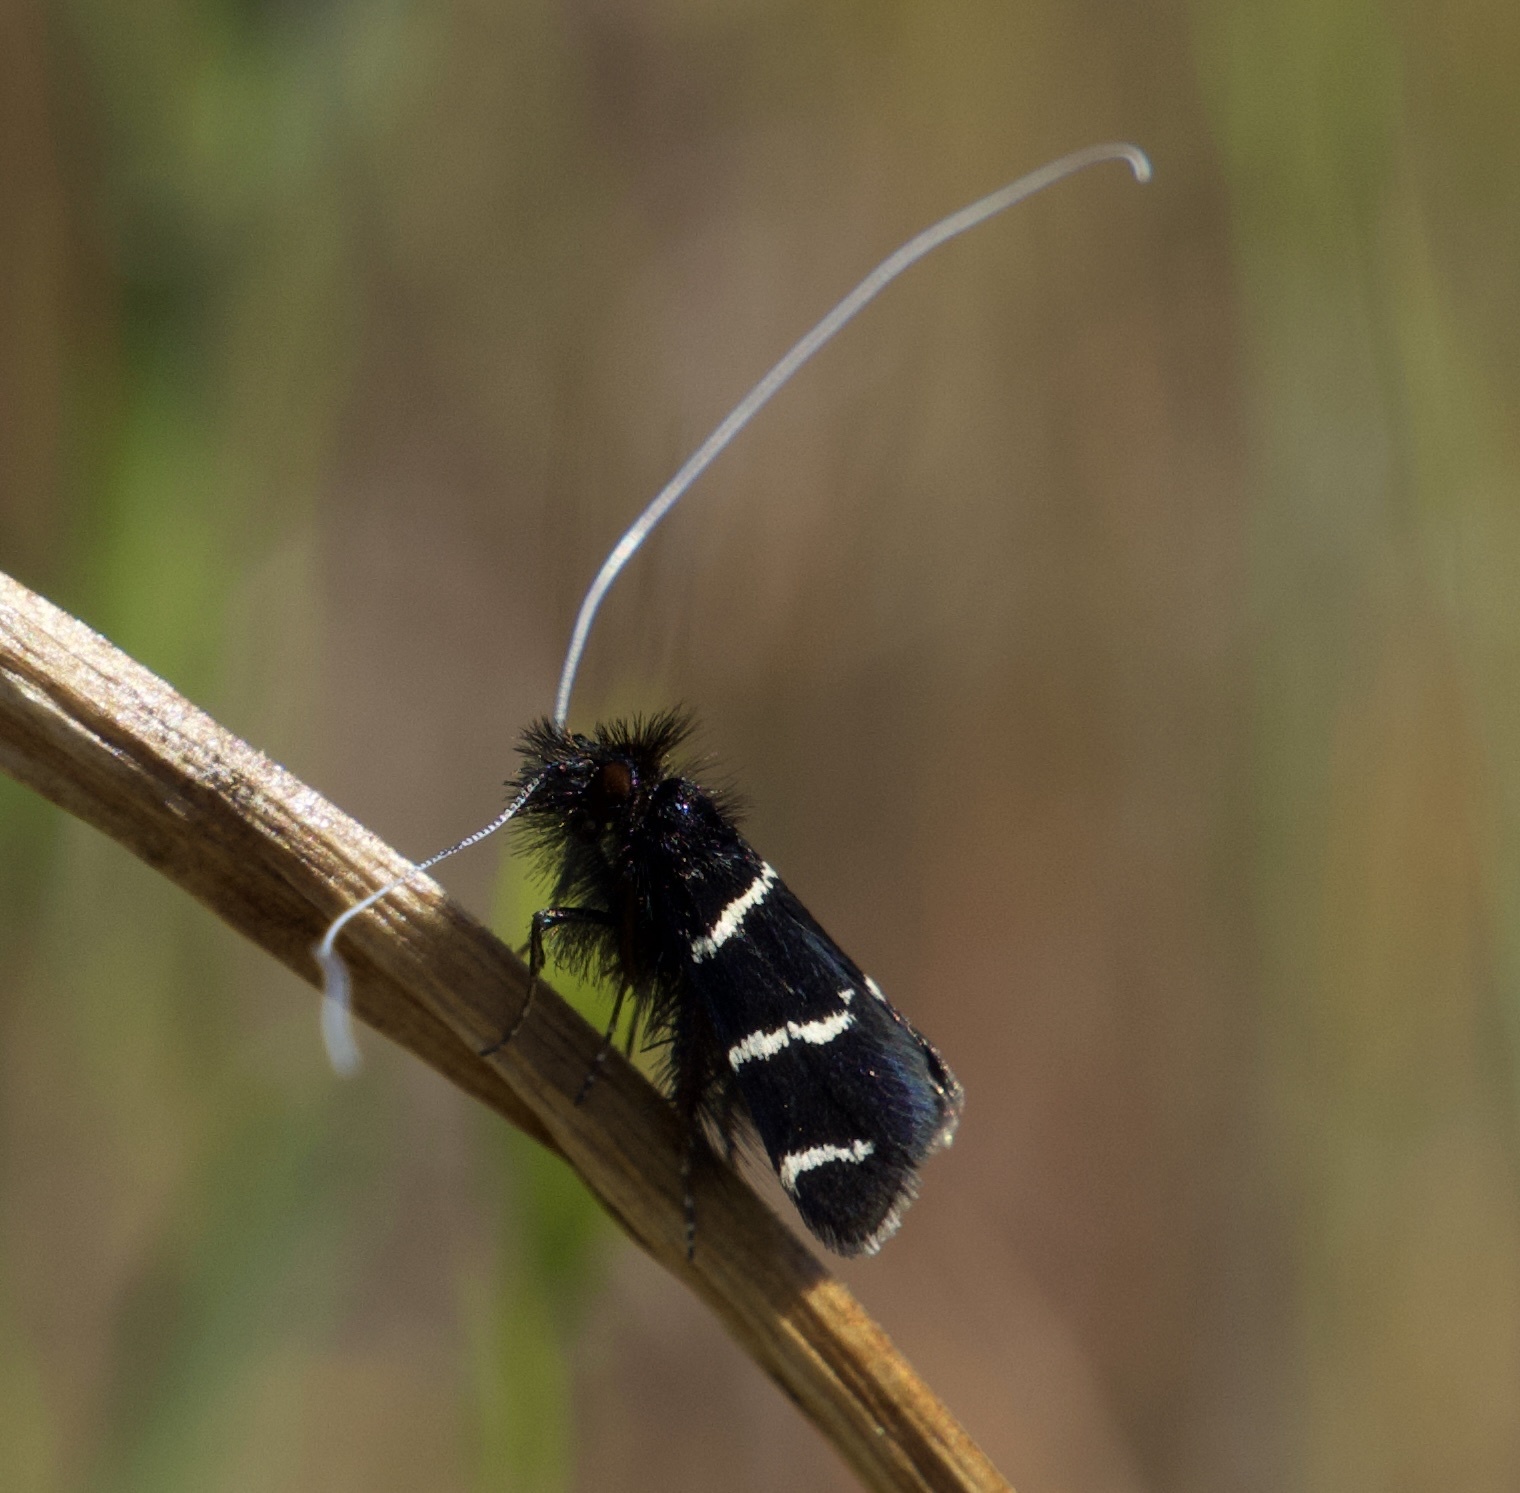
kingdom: Animalia
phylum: Arthropoda
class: Insecta
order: Lepidoptera
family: Adelidae
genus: Adela
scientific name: Adela trigrapha
